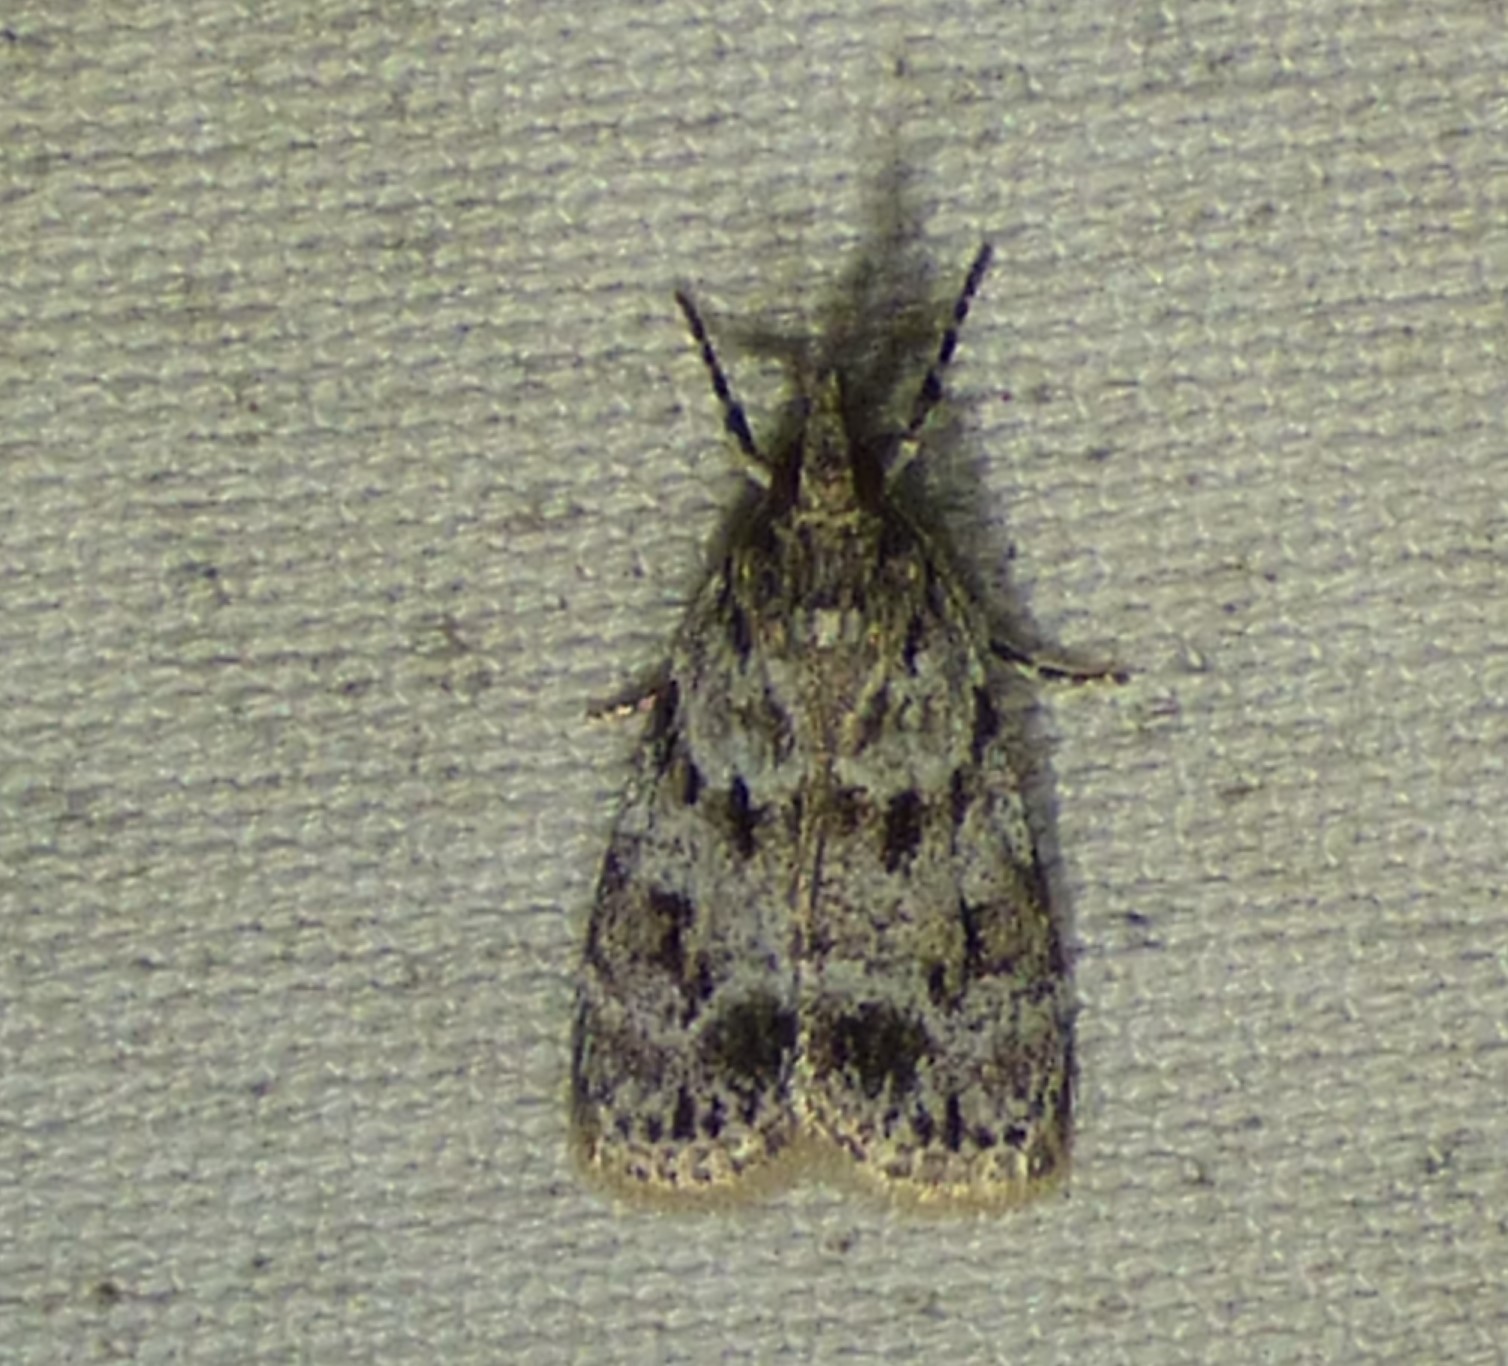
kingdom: Animalia
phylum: Arthropoda
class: Insecta
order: Lepidoptera
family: Crambidae
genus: Eudonia
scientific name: Eudonia heterosalis
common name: Mcdunnough's eudonia
